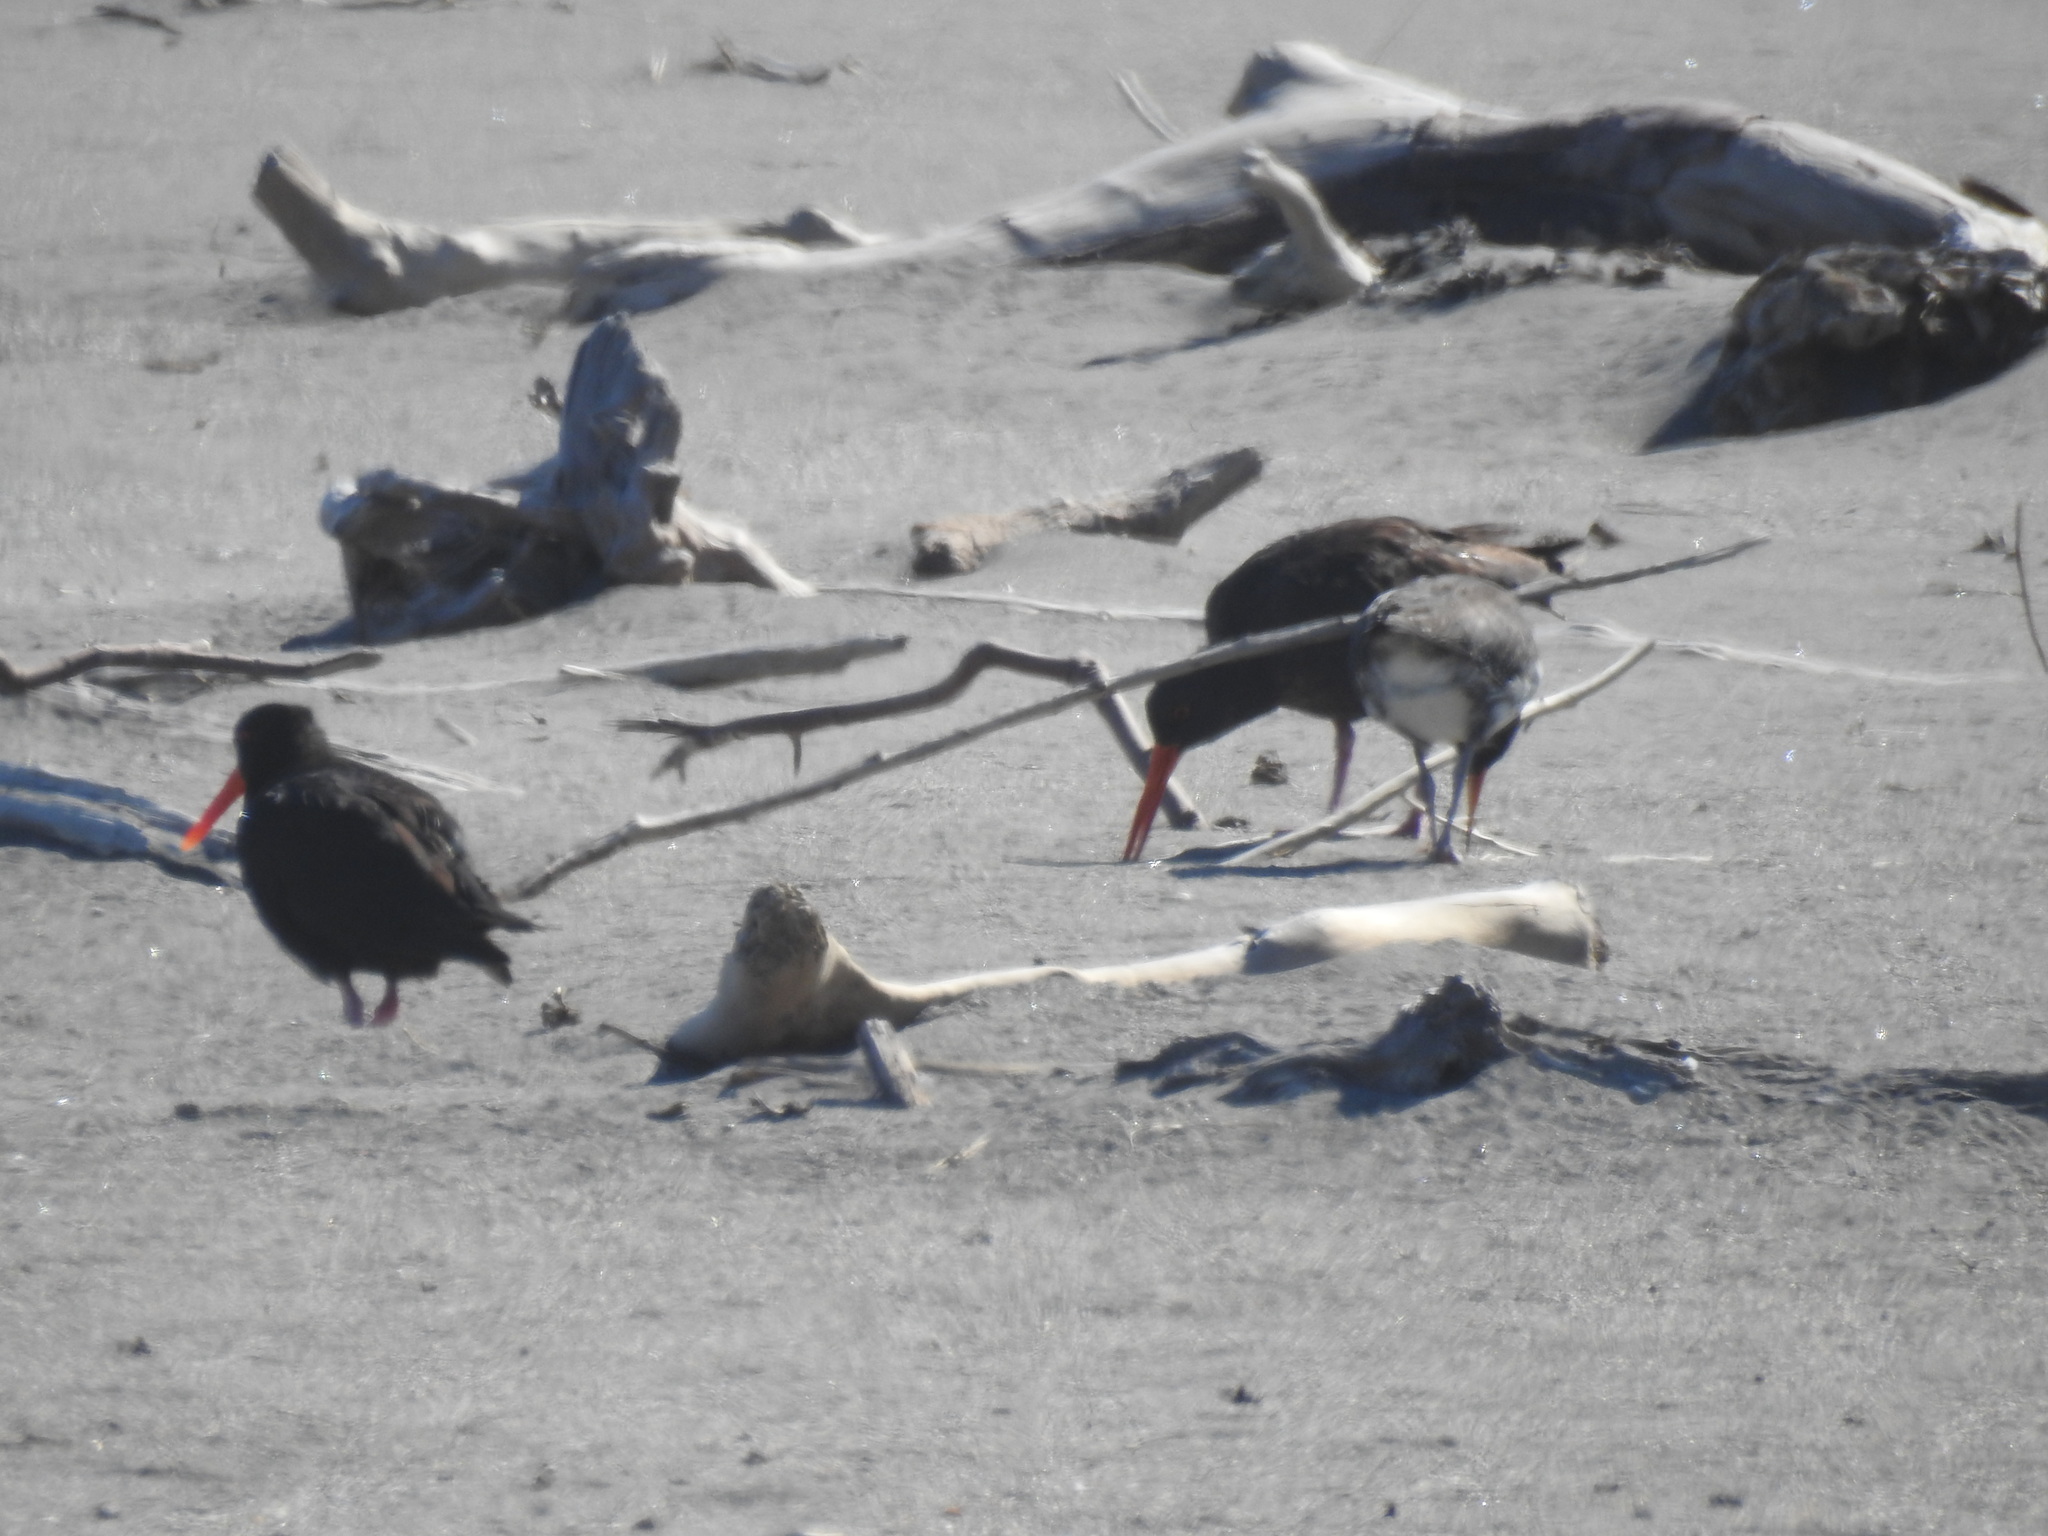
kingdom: Animalia
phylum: Chordata
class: Aves
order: Charadriiformes
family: Haematopodidae
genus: Haematopus
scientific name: Haematopus unicolor
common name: Variable oystercatcher
